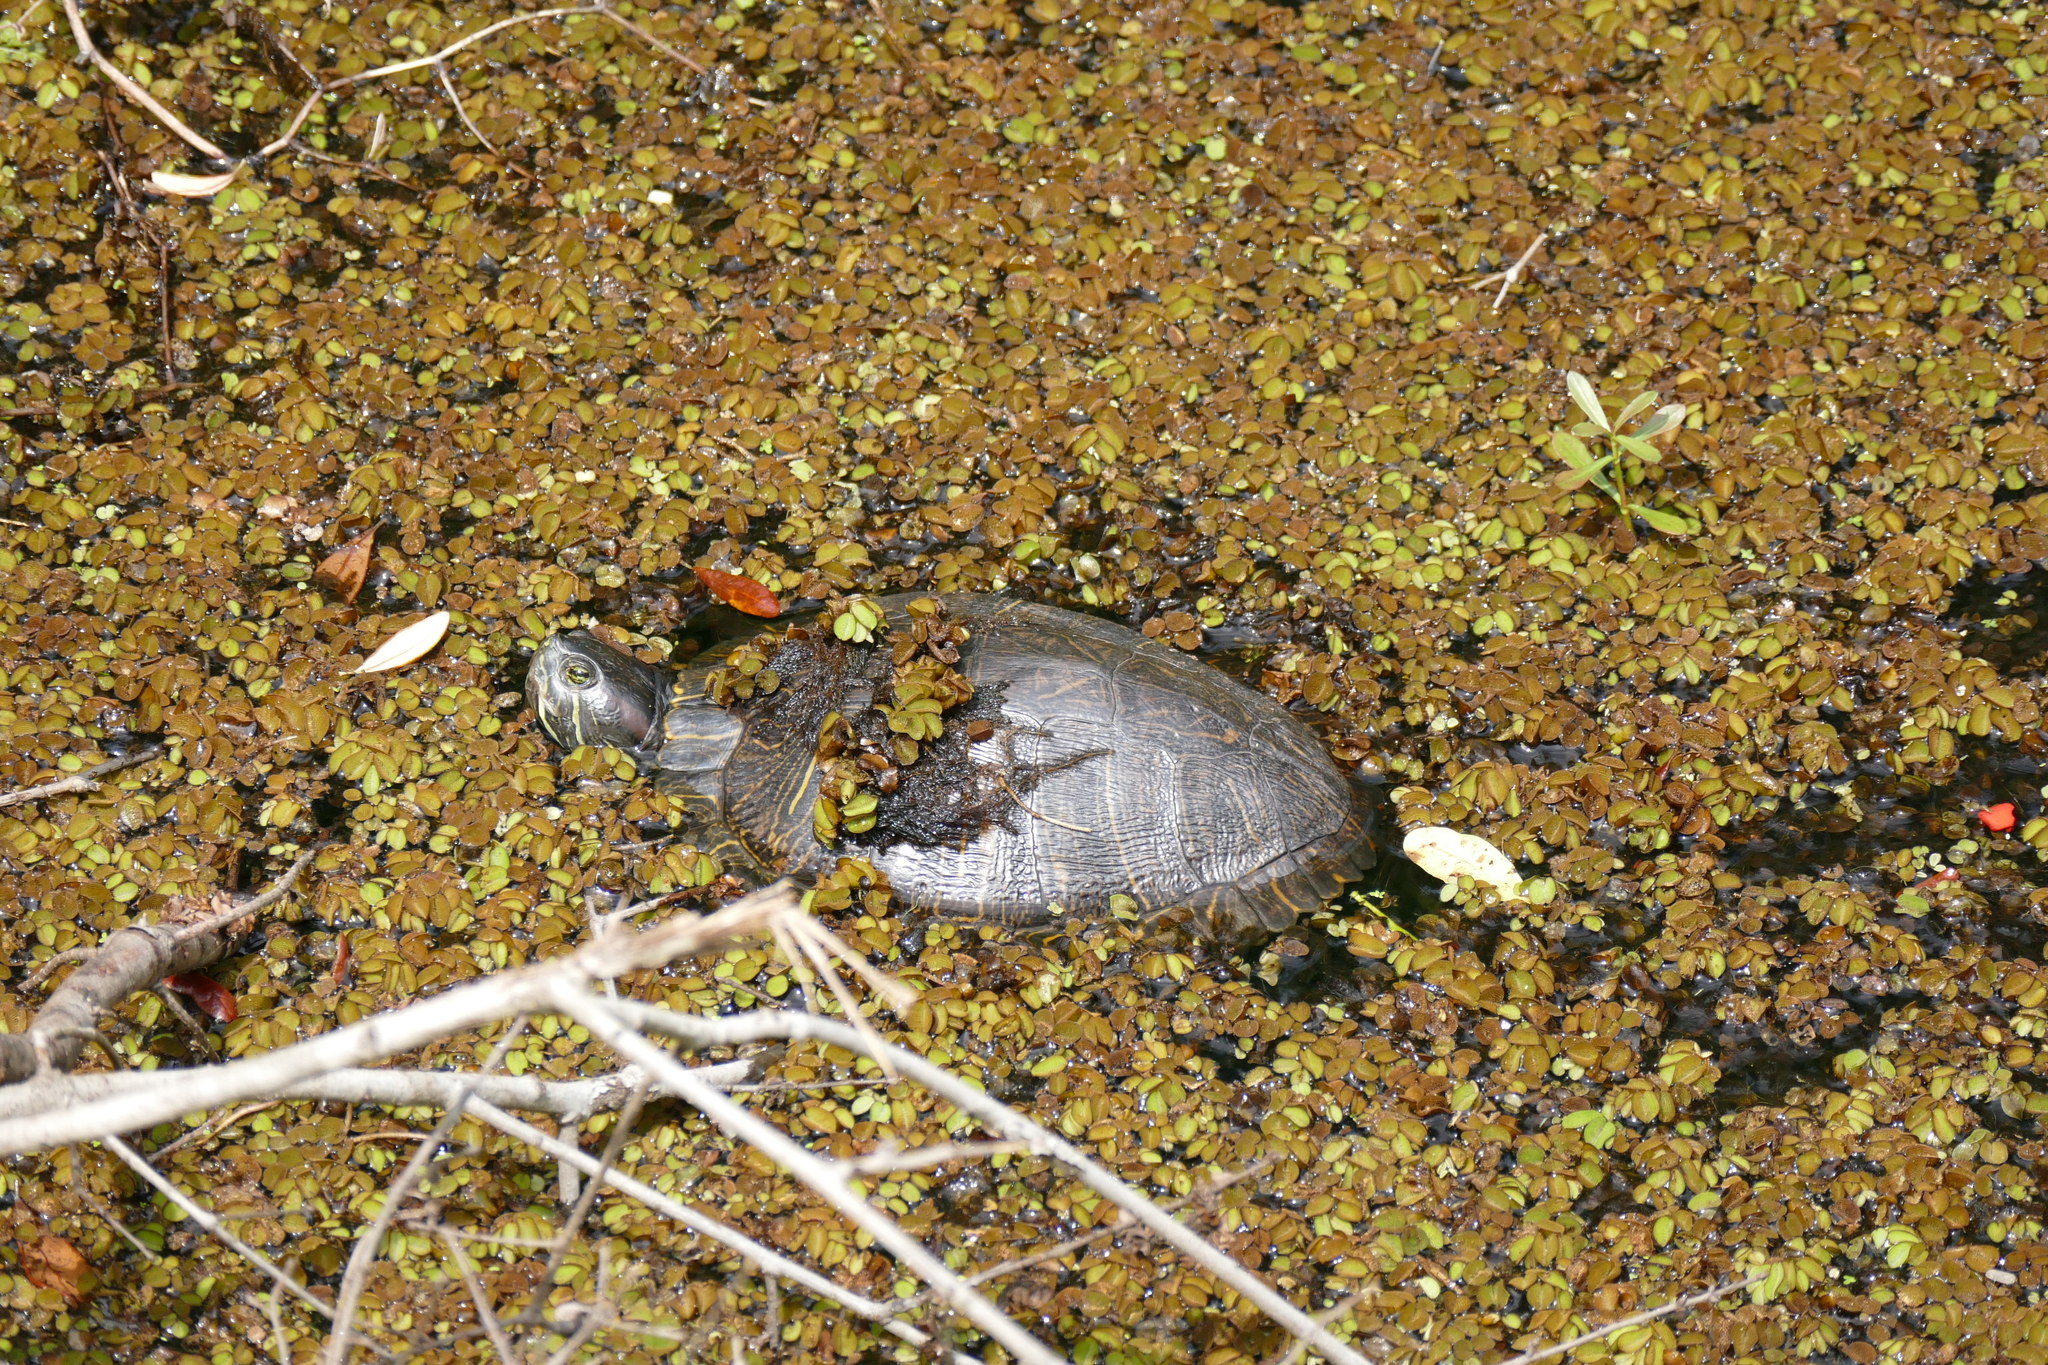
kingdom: Animalia
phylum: Chordata
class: Testudines
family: Emydidae
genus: Trachemys
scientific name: Trachemys scripta
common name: Slider
